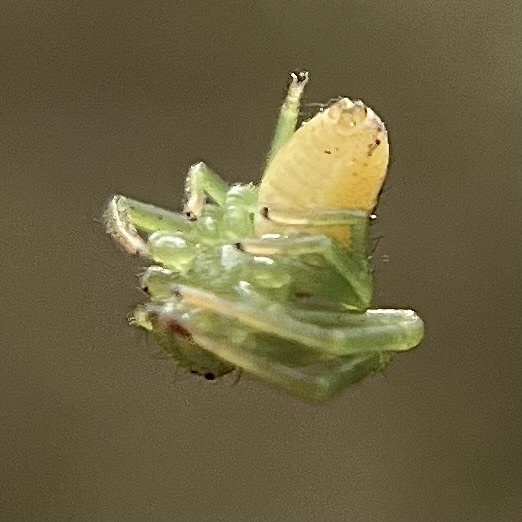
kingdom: Animalia
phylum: Arthropoda
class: Arachnida
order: Araneae
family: Thomisidae
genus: Diaea
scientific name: Diaea dorsata
